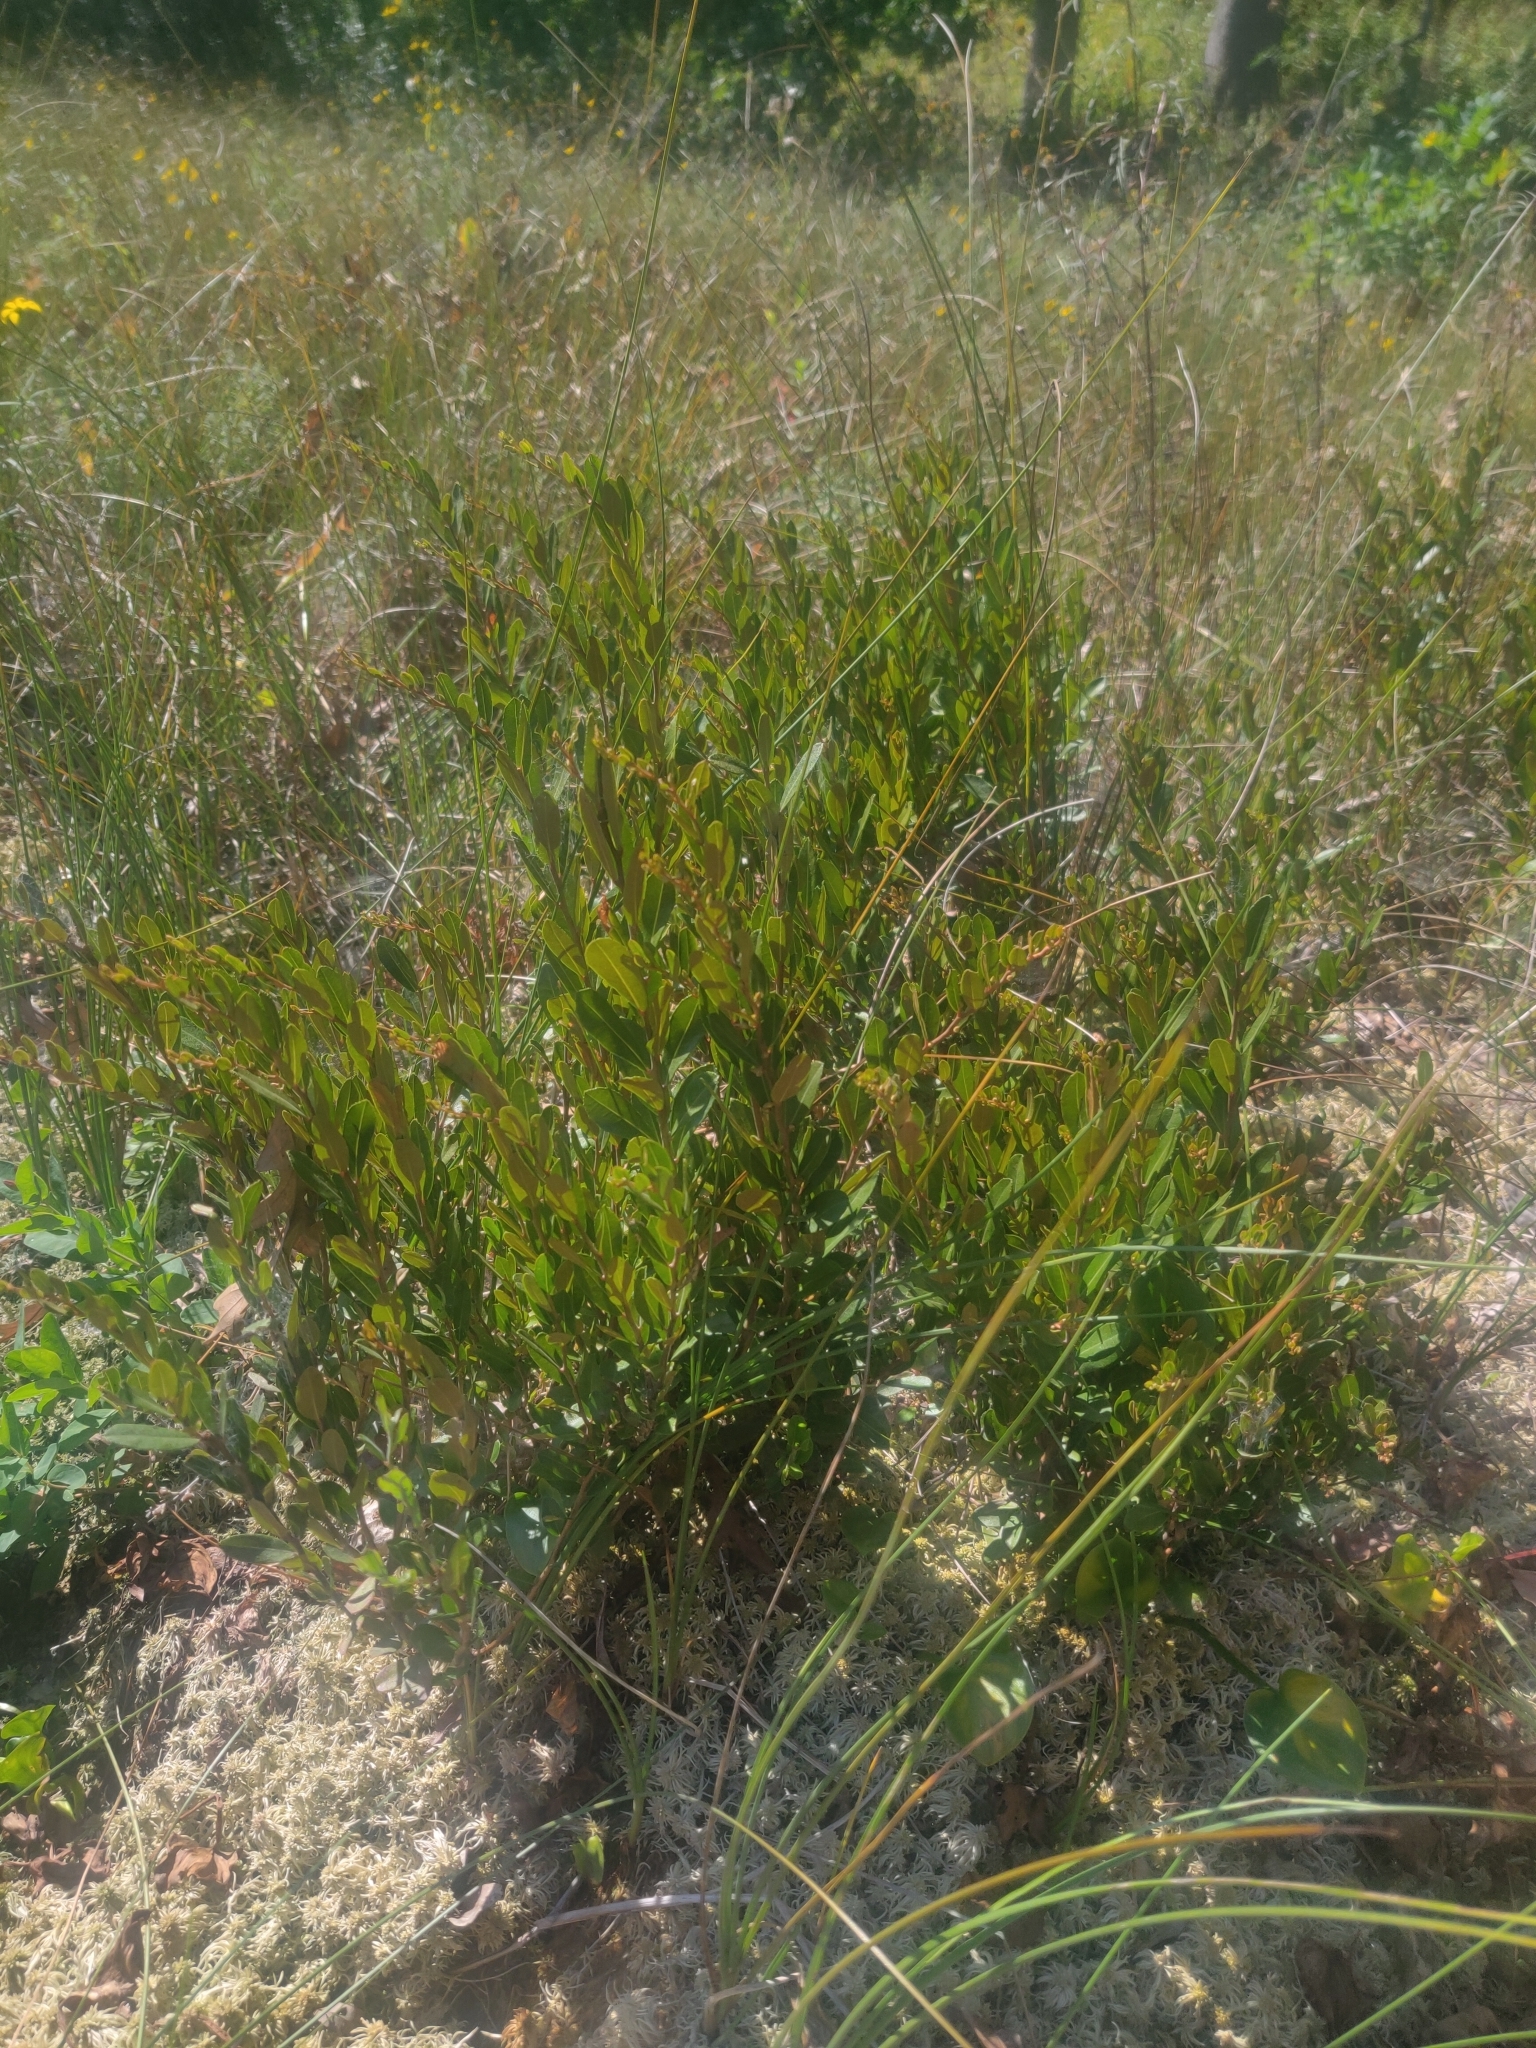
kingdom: Plantae
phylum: Tracheophyta
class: Magnoliopsida
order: Ericales
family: Ericaceae
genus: Chamaedaphne
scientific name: Chamaedaphne calyculata
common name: Leatherleaf
